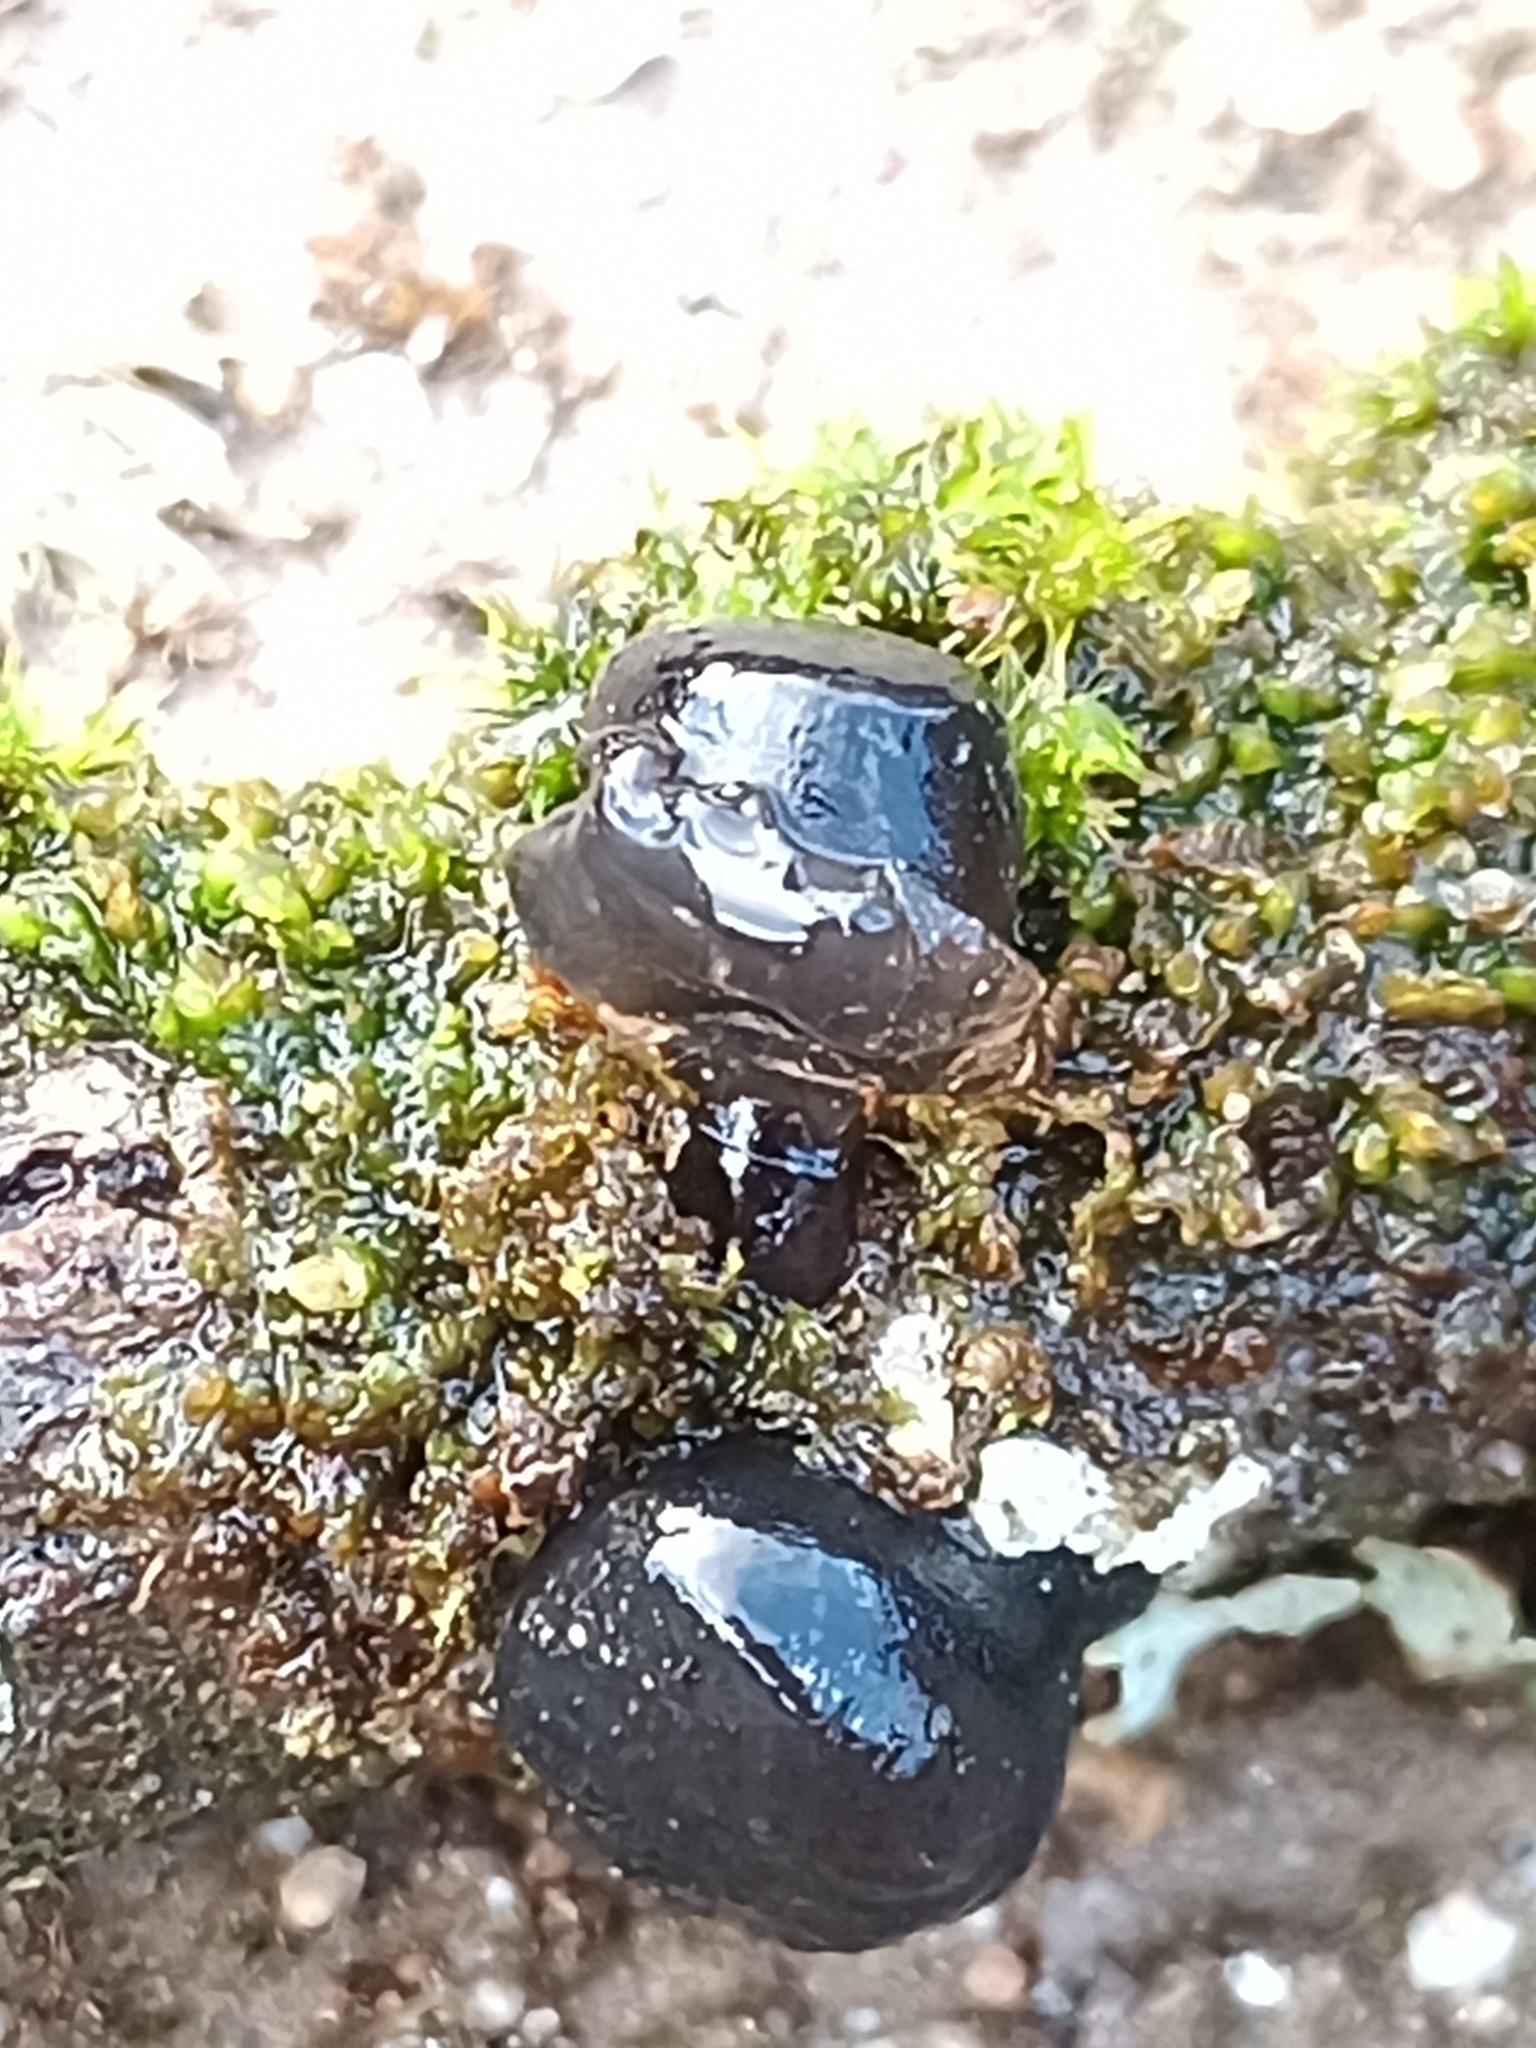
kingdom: Fungi
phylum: Basidiomycota
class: Agaricomycetes
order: Auriculariales
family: Auriculariaceae
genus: Exidia
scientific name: Exidia glandulosa
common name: Witches' butter
